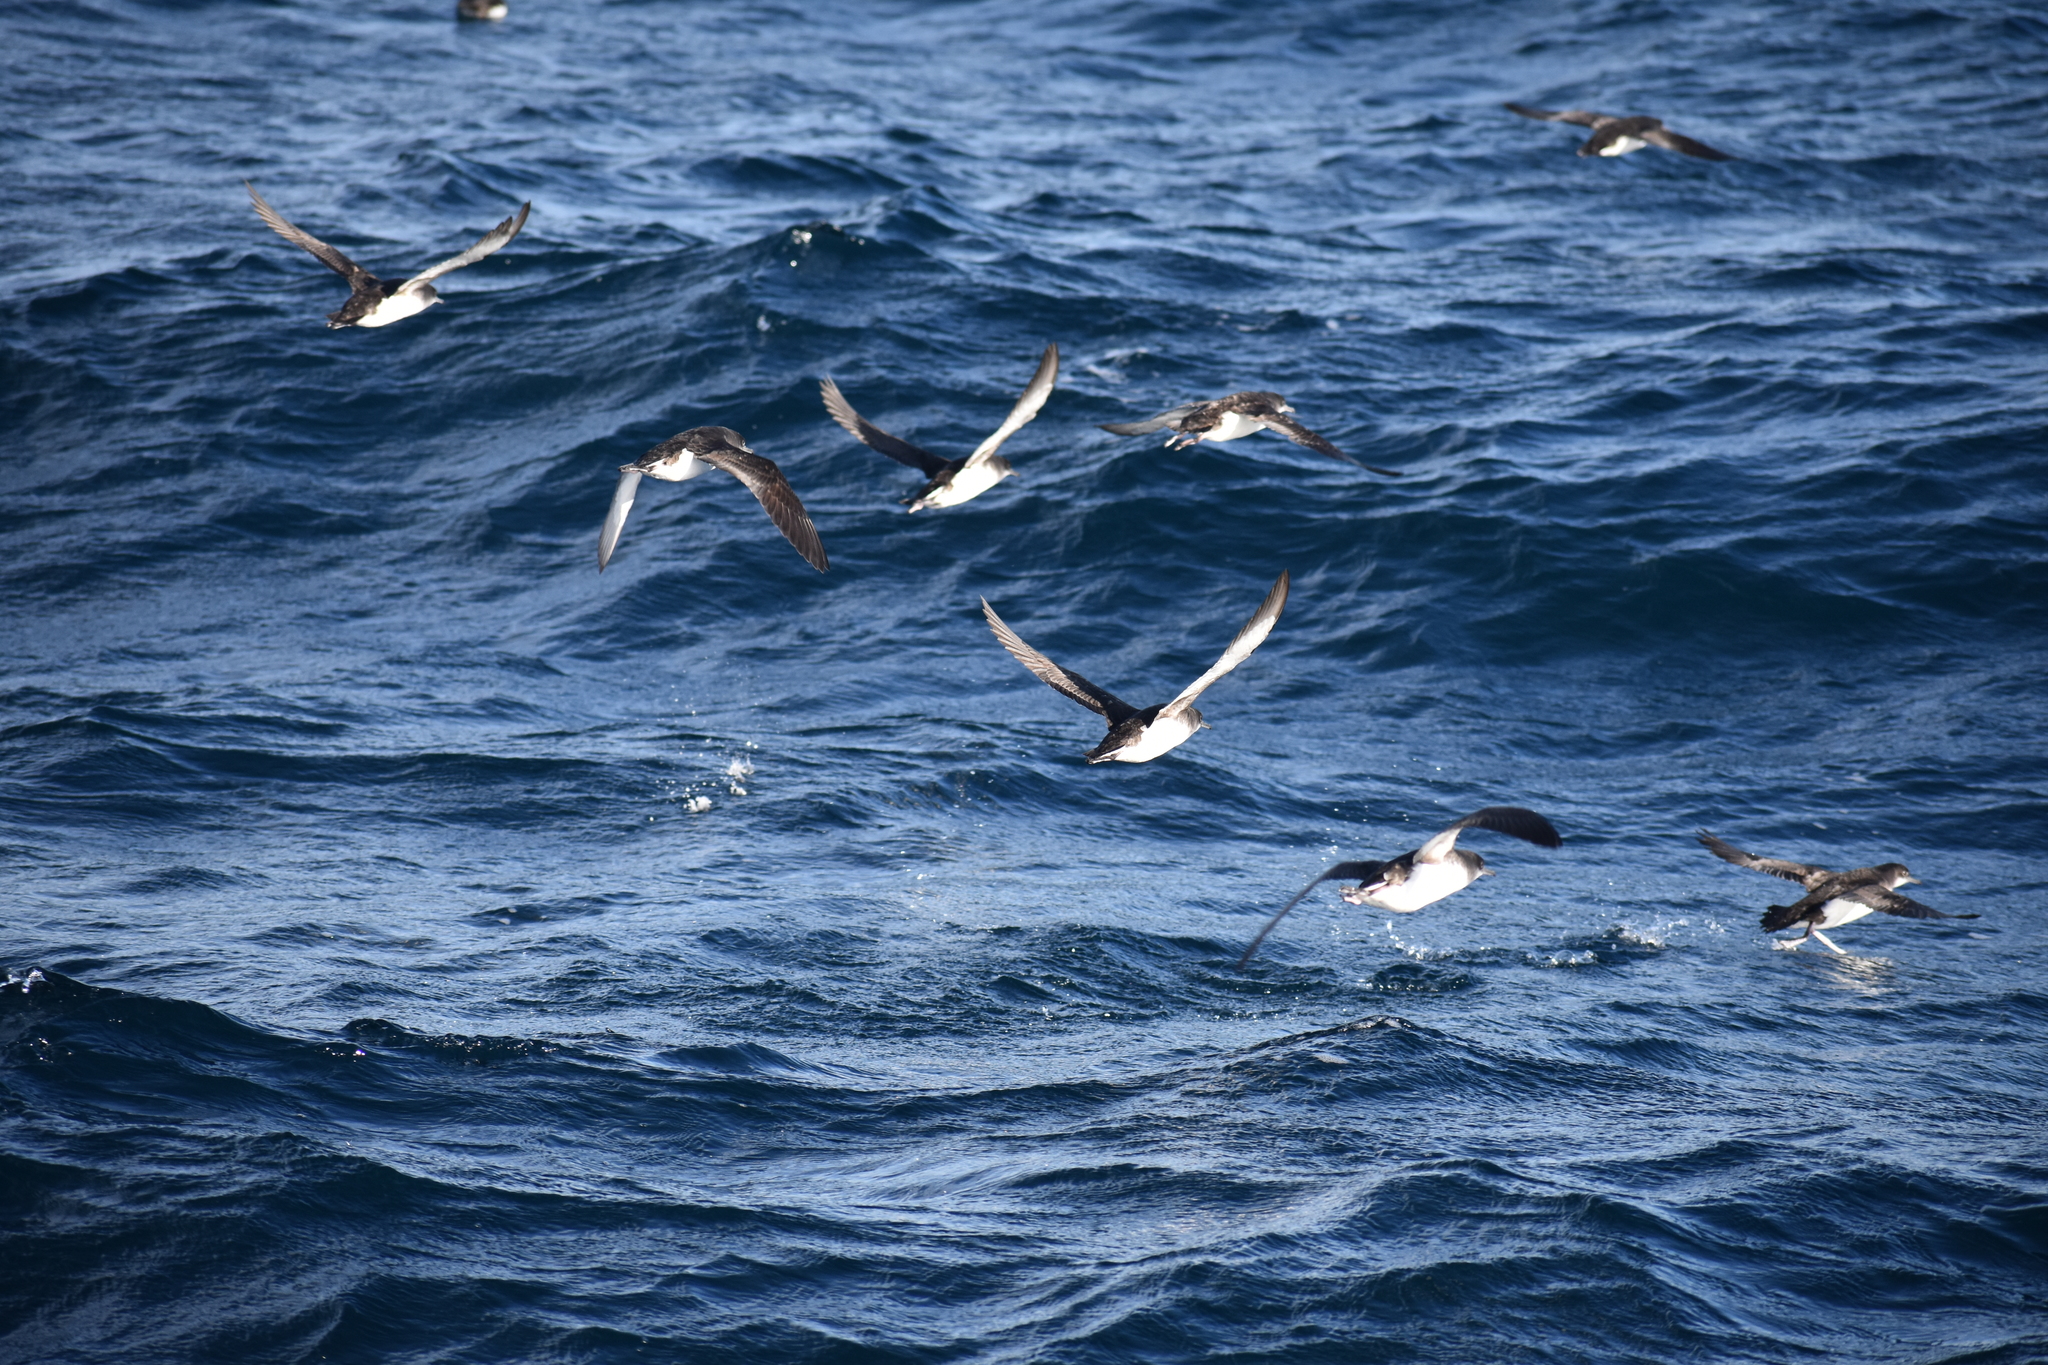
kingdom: Animalia
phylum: Chordata
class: Aves
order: Procellariiformes
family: Procellariidae
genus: Puffinus
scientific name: Puffinus gavia
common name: Fluttering shearwater
